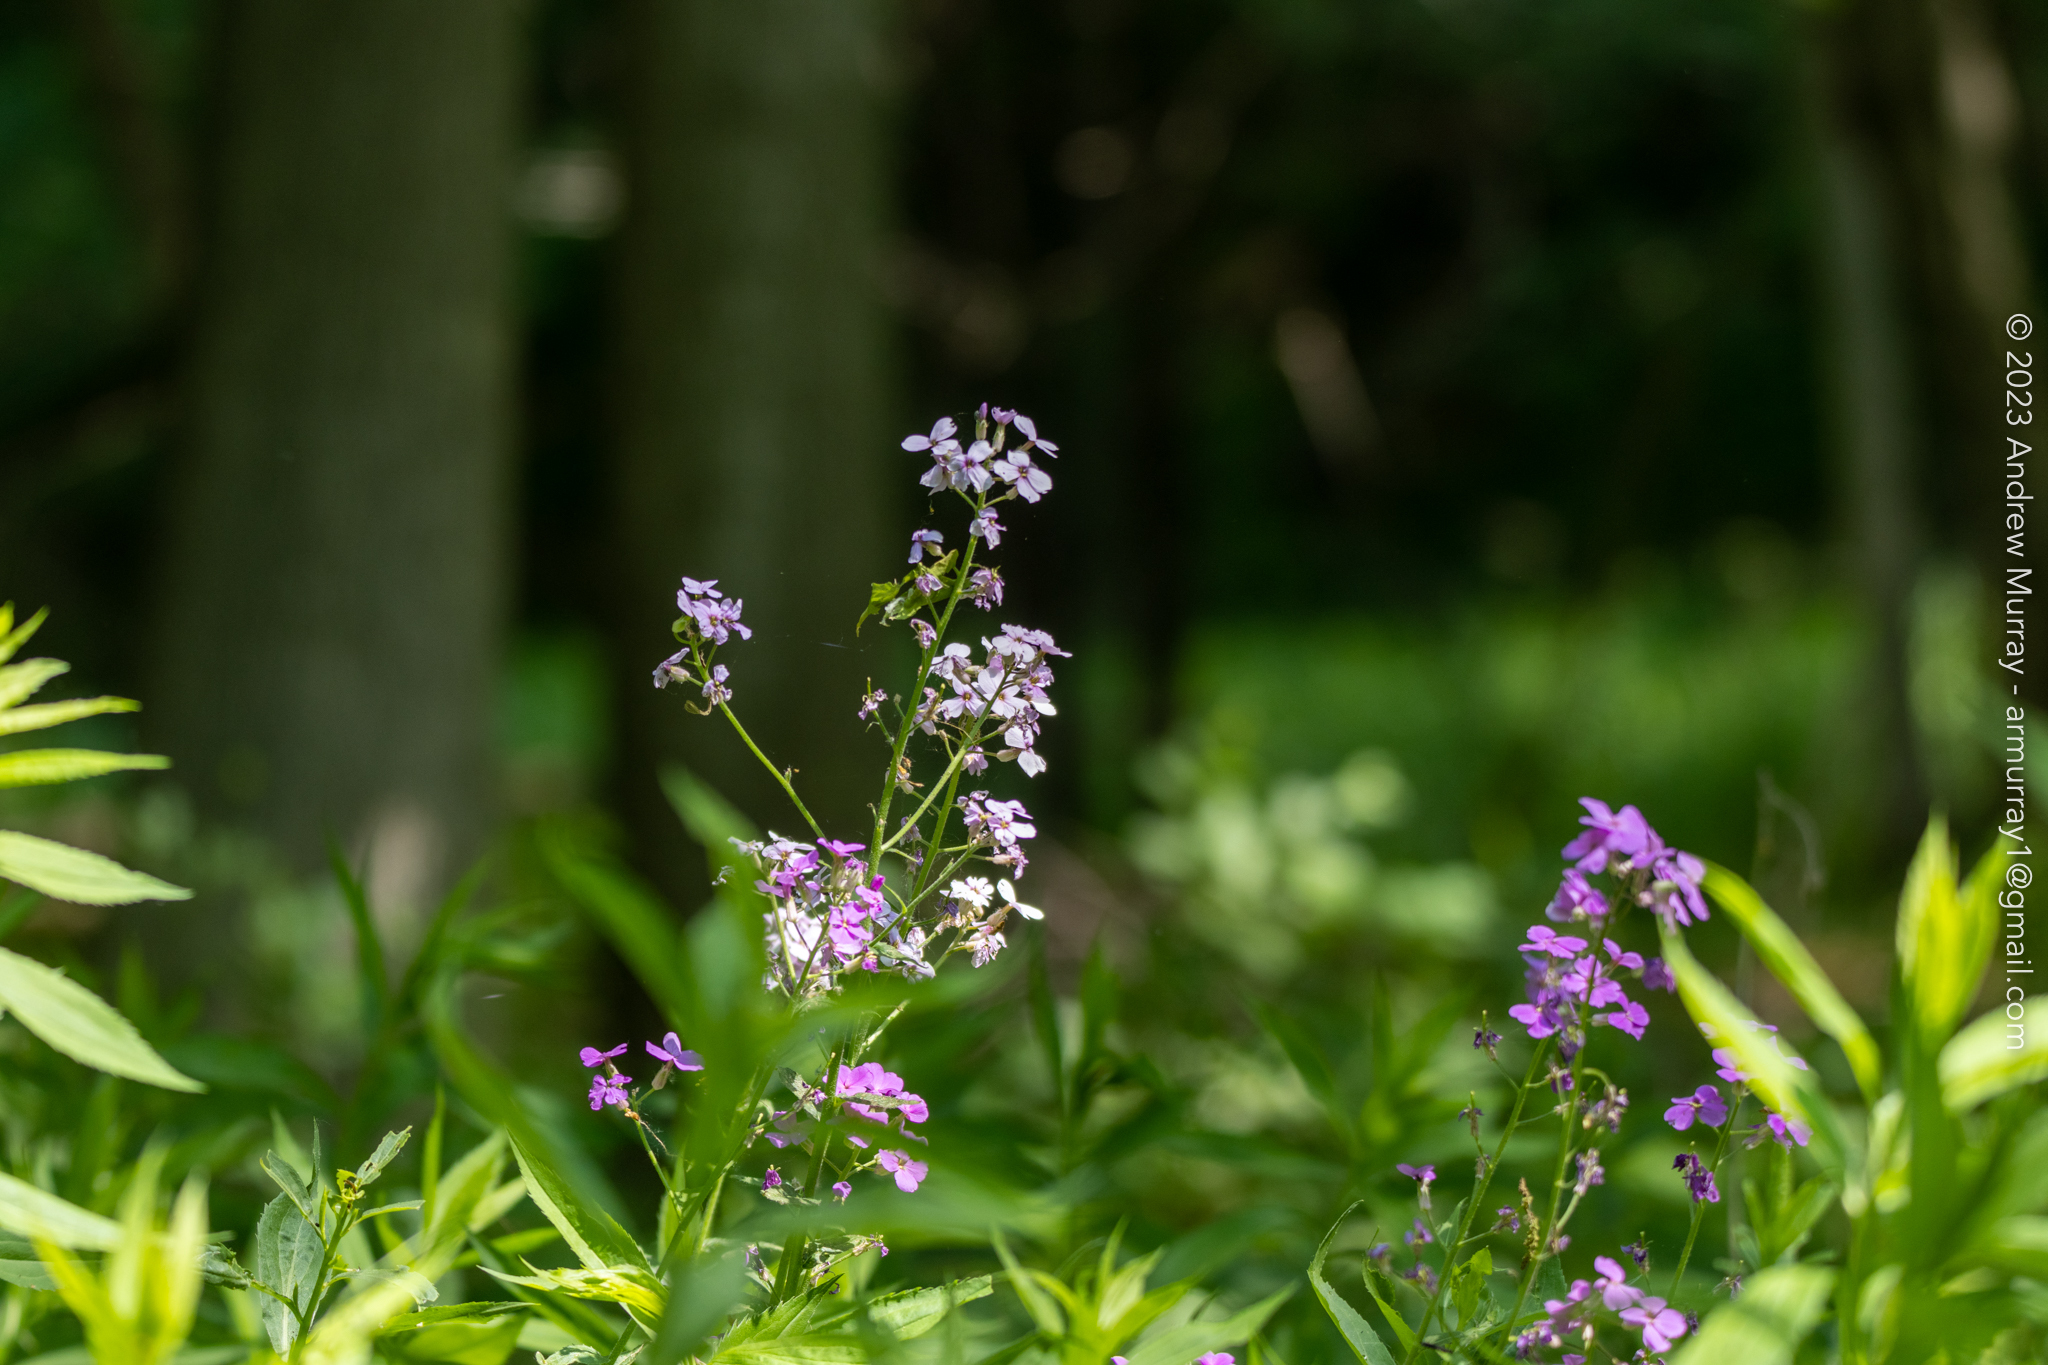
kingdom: Plantae
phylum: Tracheophyta
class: Magnoliopsida
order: Brassicales
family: Brassicaceae
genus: Hesperis
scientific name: Hesperis matronalis
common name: Dame's-violet
